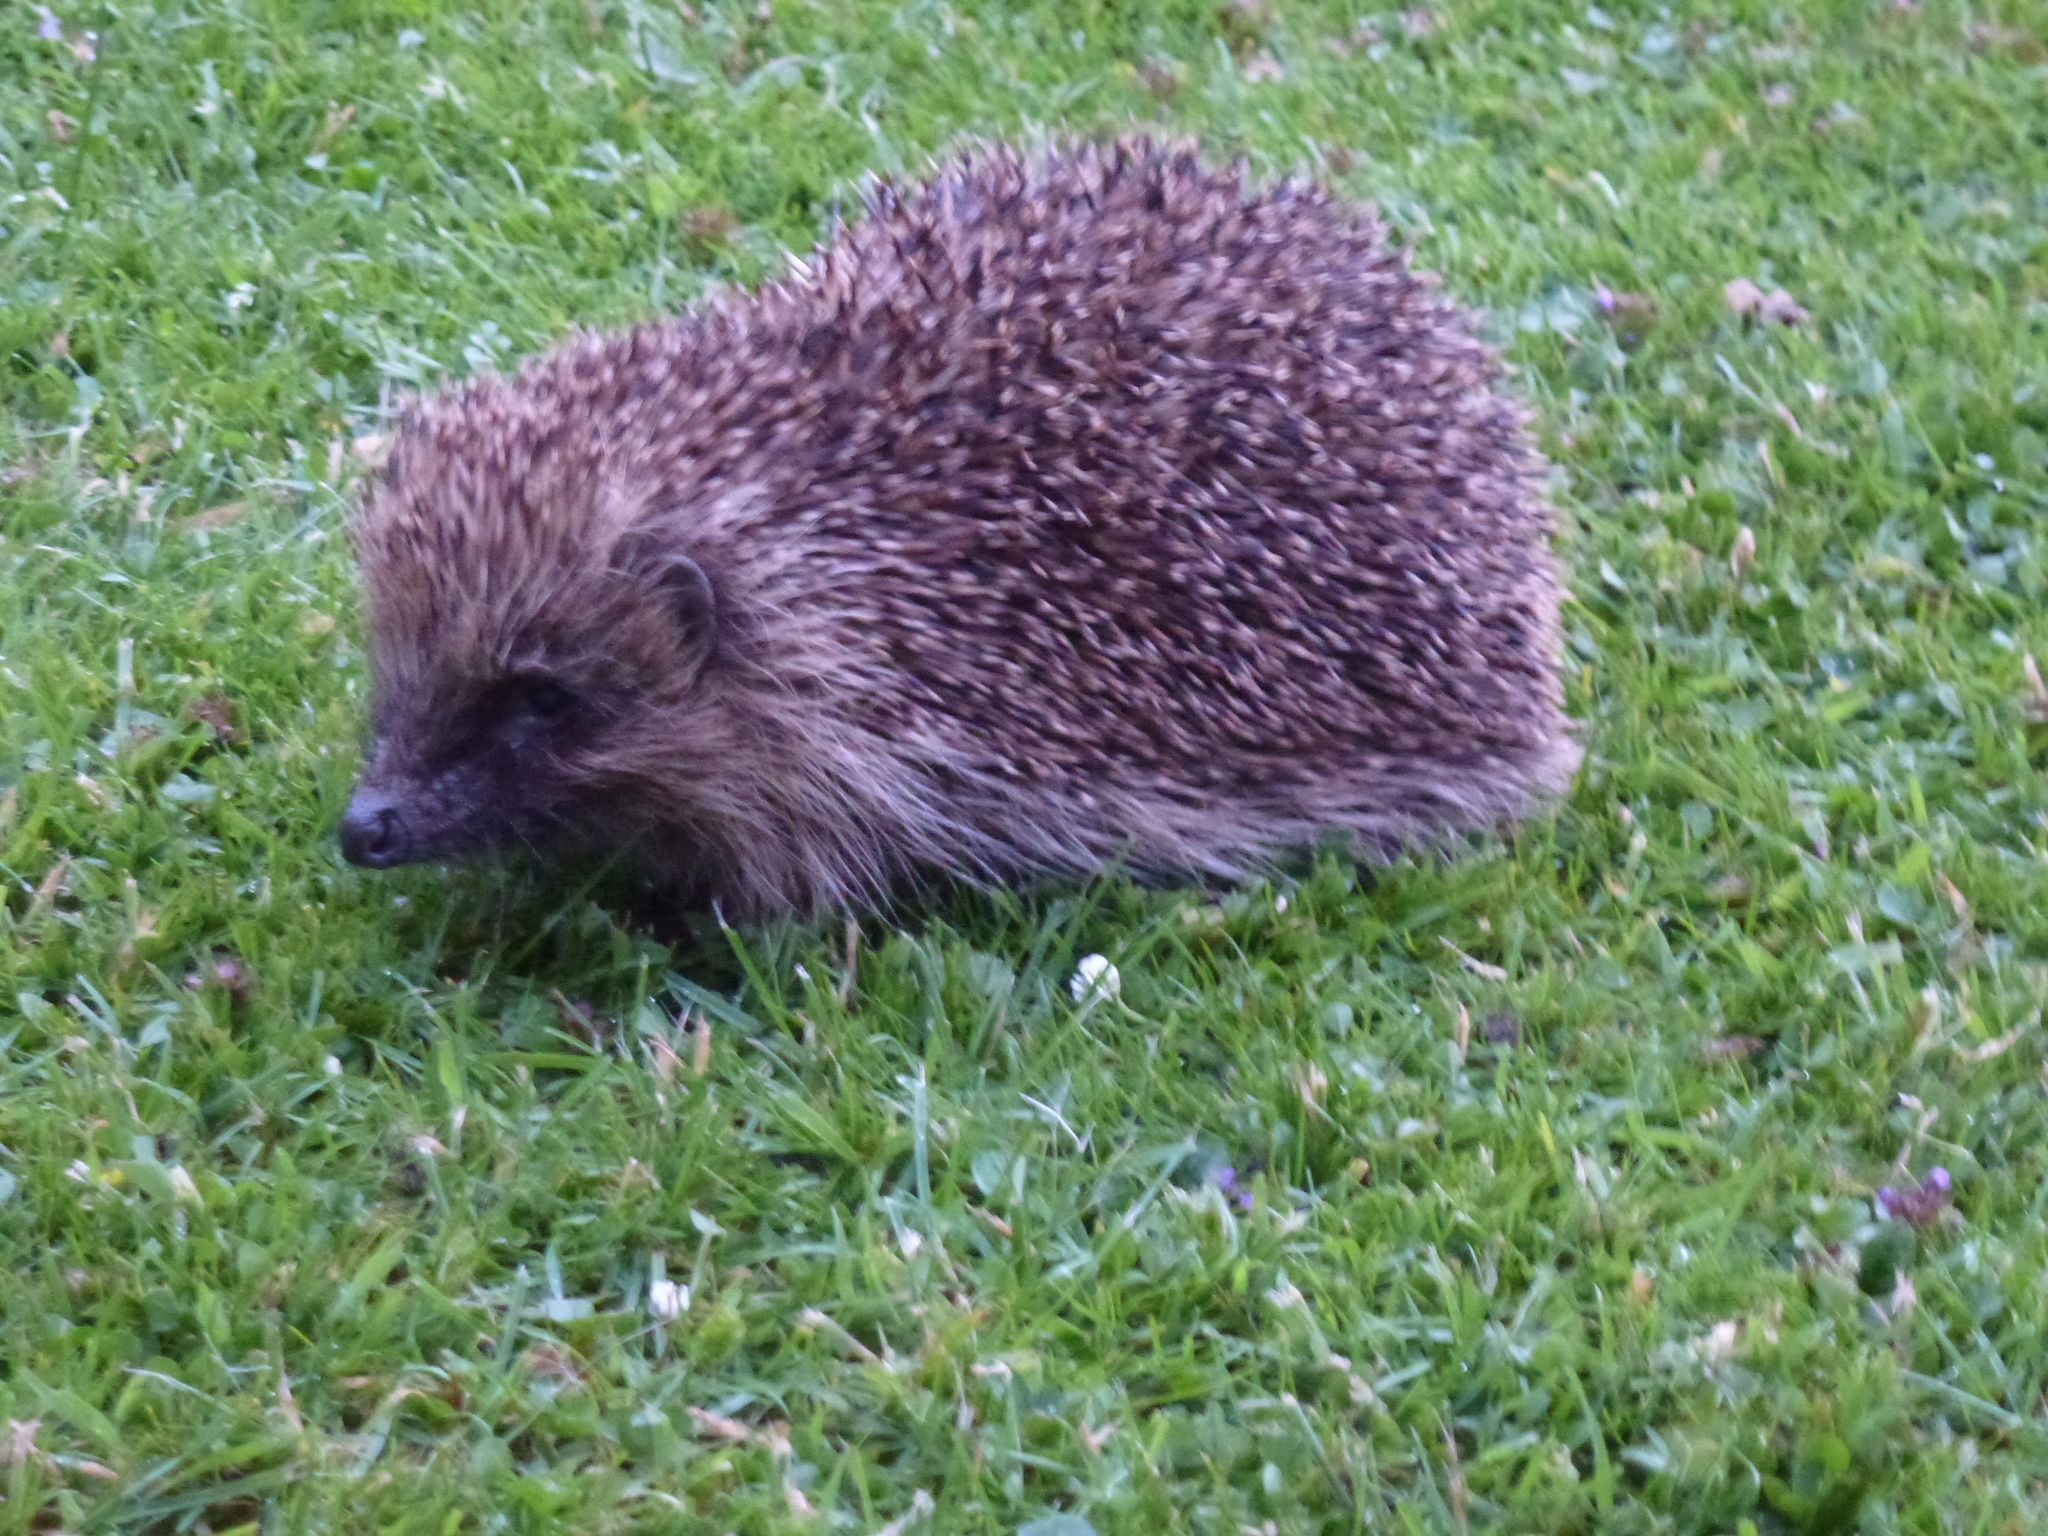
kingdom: Animalia
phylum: Chordata
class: Mammalia
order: Erinaceomorpha
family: Erinaceidae
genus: Erinaceus
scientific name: Erinaceus europaeus
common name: West european hedgehog
